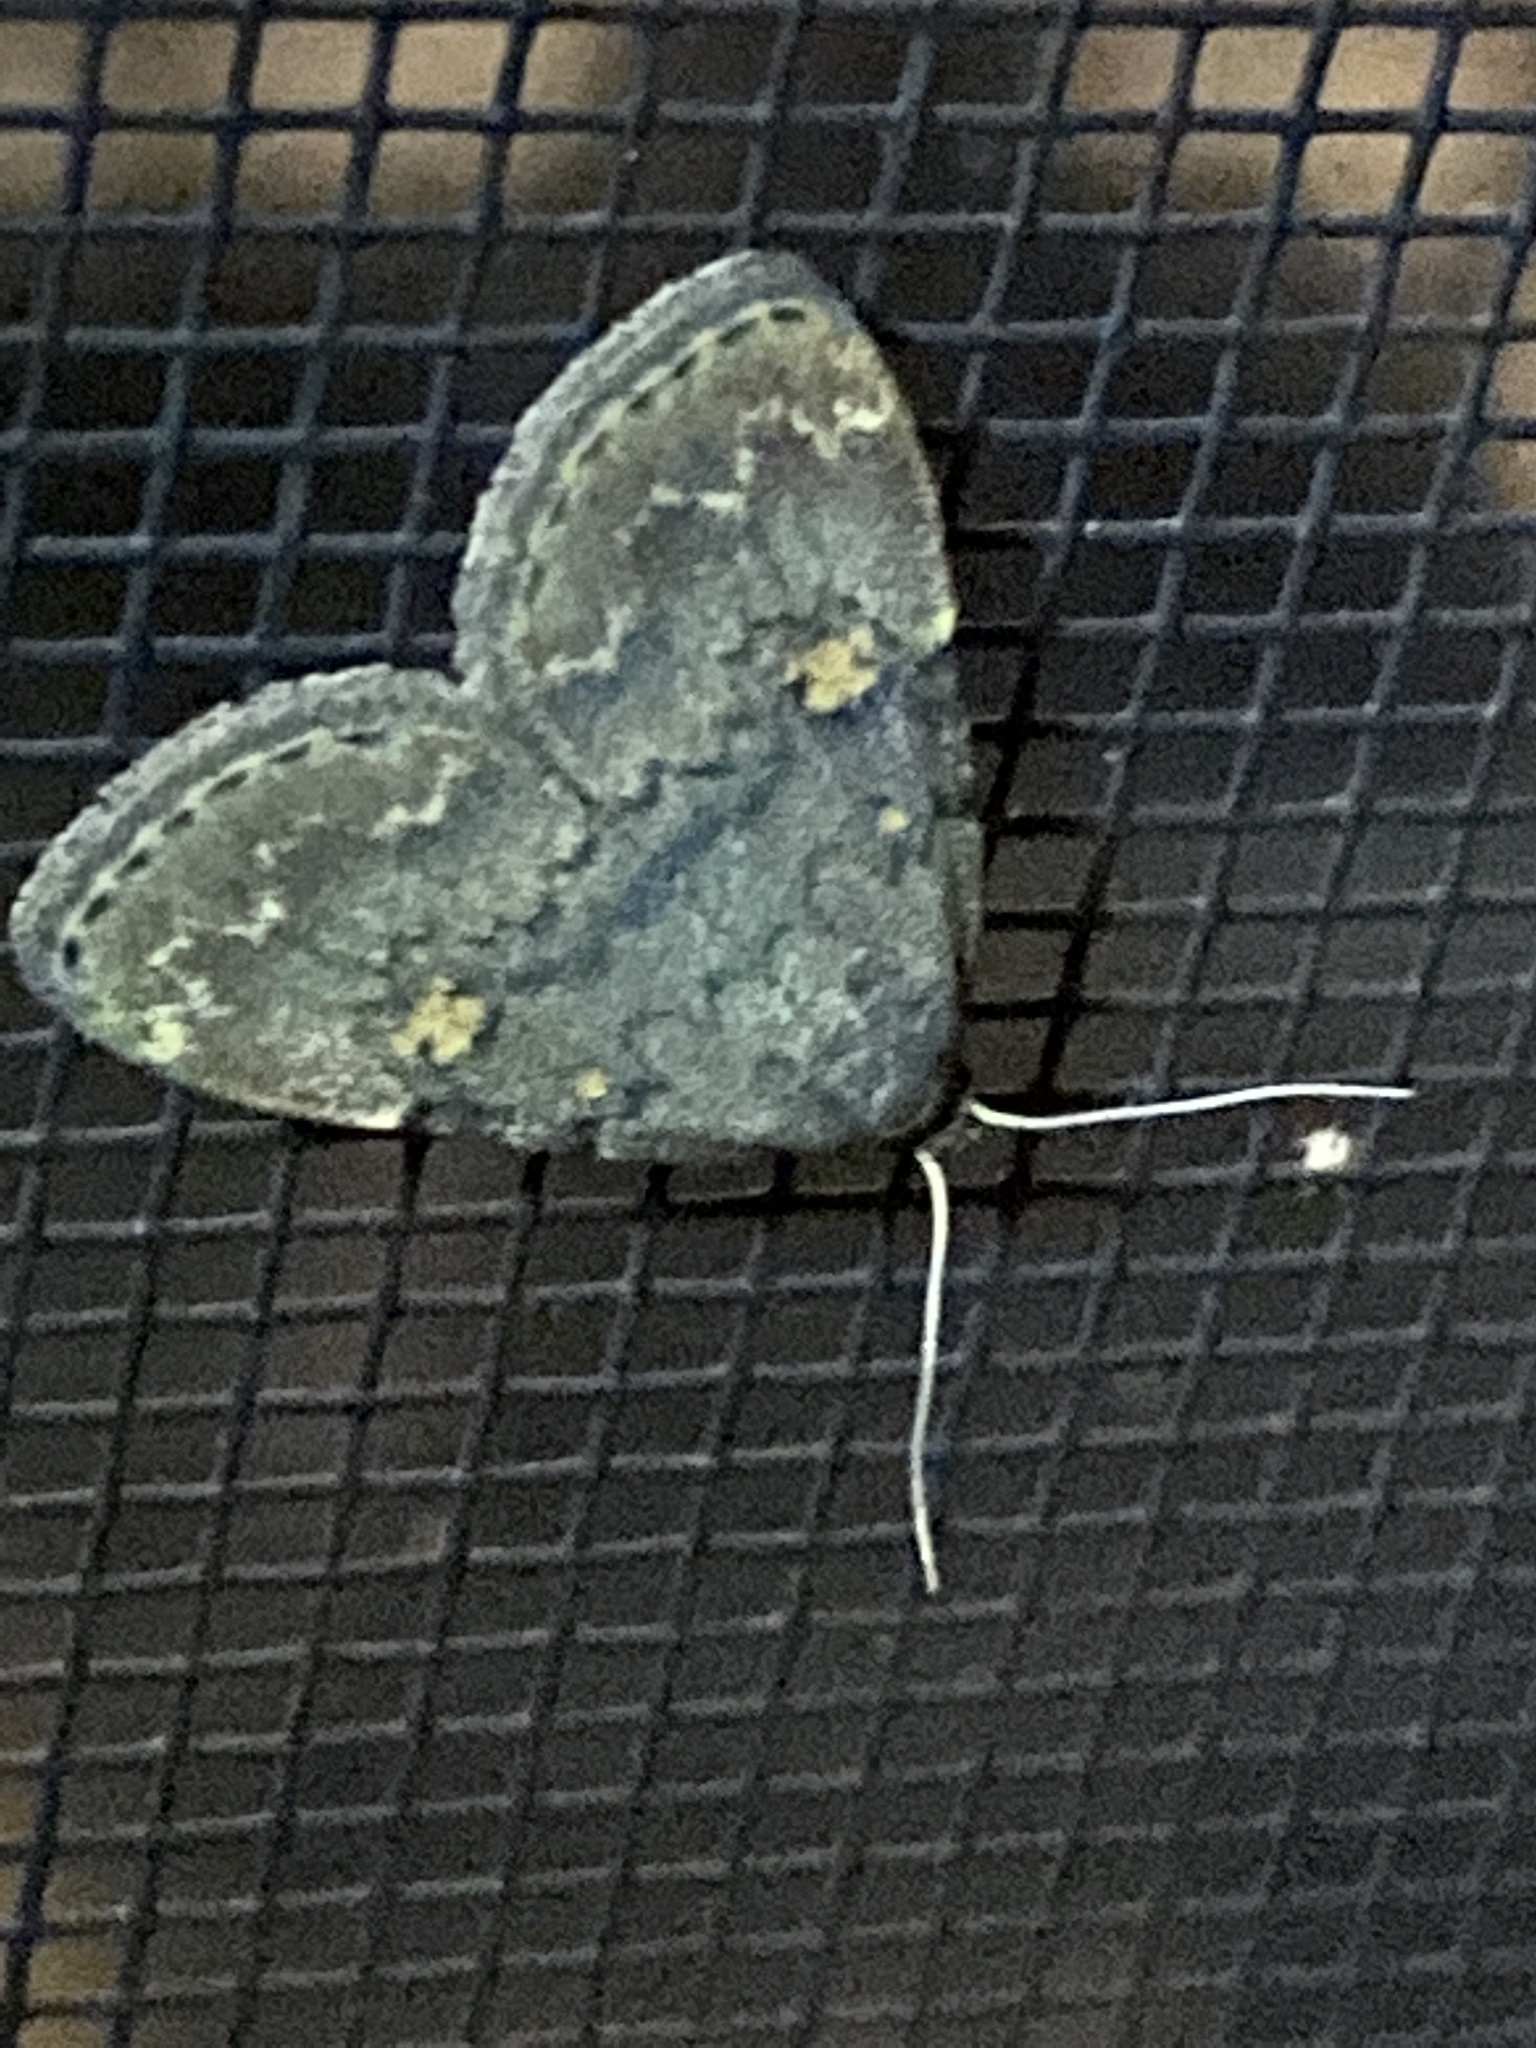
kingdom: Animalia
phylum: Arthropoda
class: Insecta
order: Lepidoptera
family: Erebidae
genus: Idia
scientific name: Idia aemula
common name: Common idia moth
